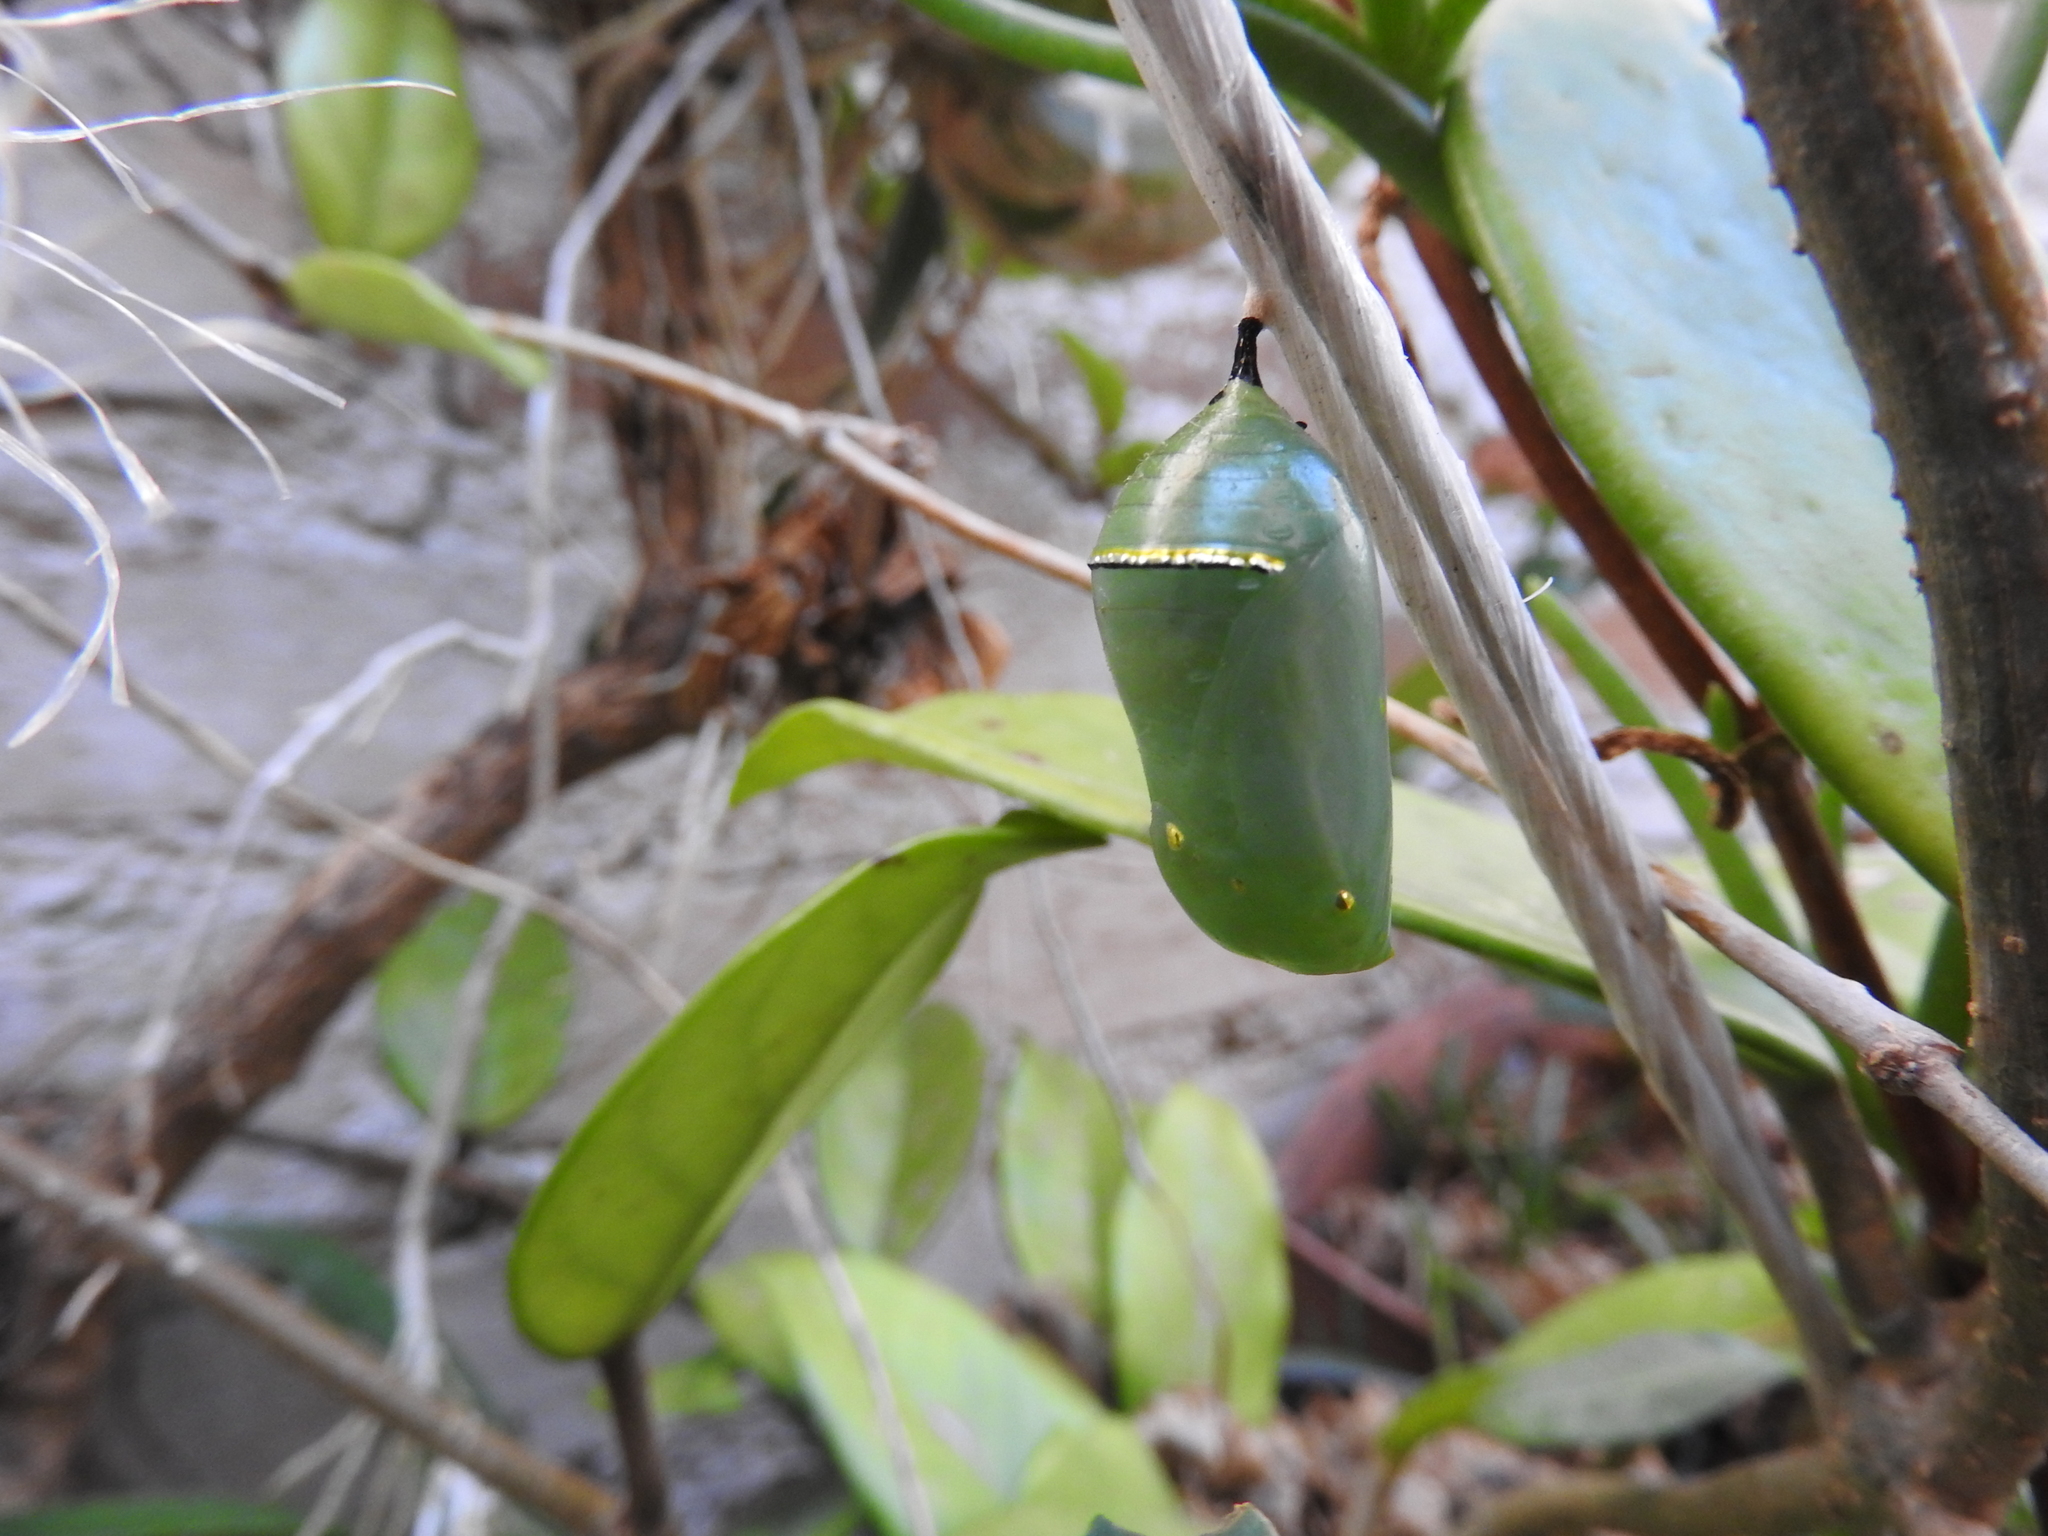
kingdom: Animalia
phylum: Arthropoda
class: Insecta
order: Lepidoptera
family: Nymphalidae
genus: Danaus
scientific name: Danaus plexippus
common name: Monarch
